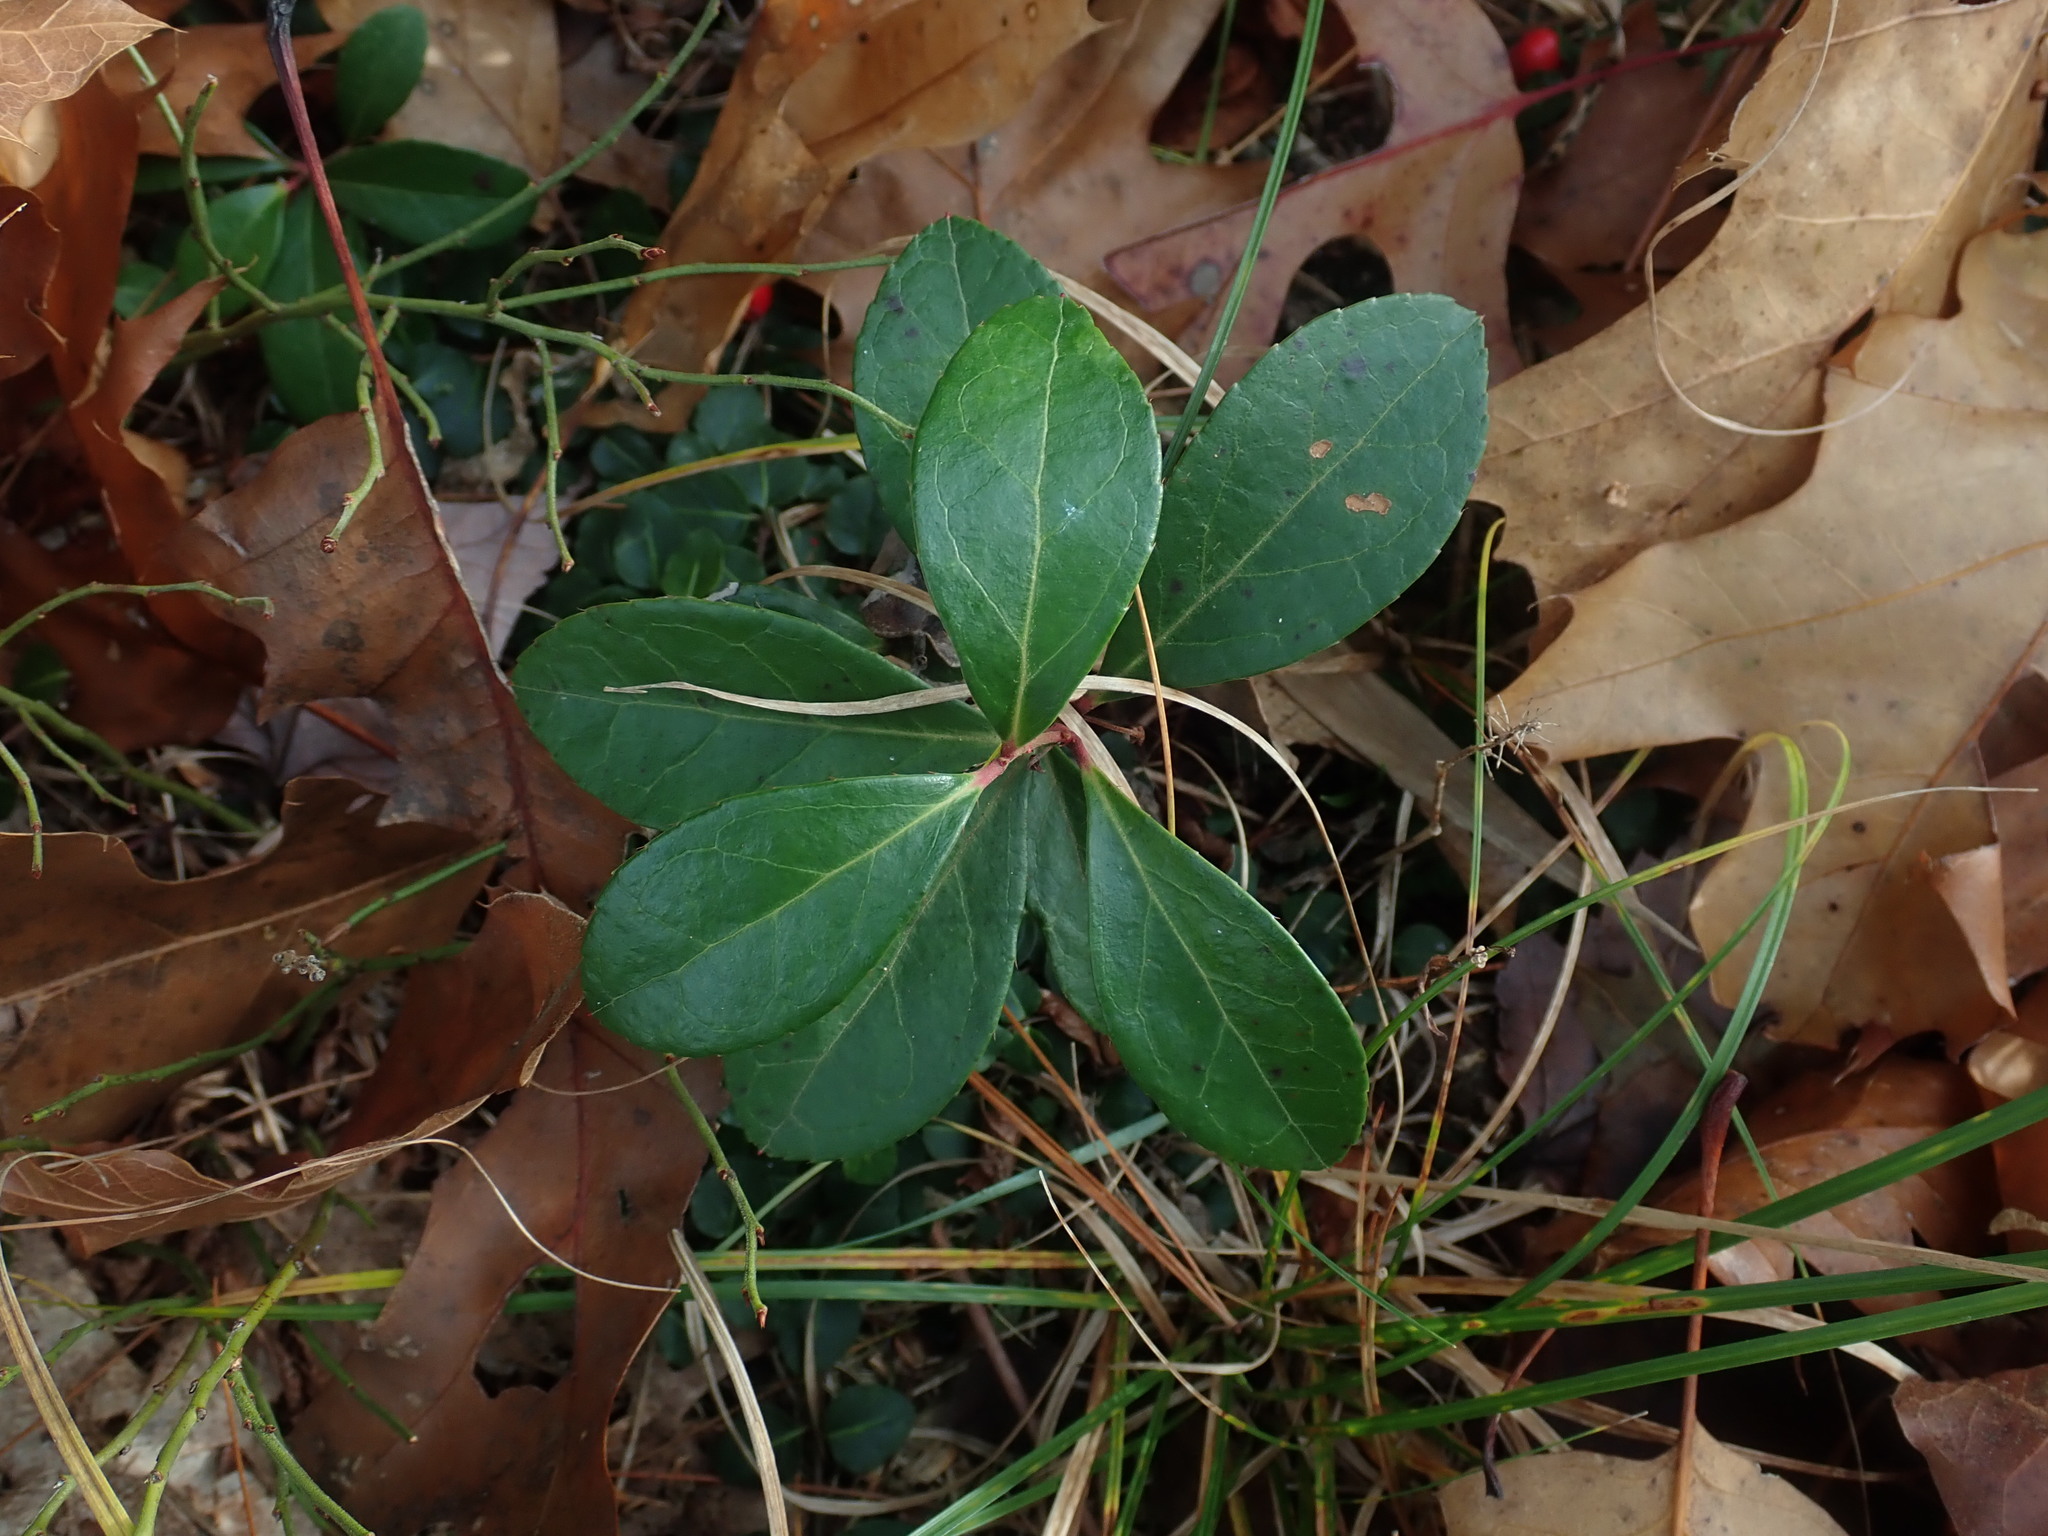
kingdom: Plantae
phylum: Tracheophyta
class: Magnoliopsida
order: Ericales
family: Ericaceae
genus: Gaultheria
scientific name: Gaultheria procumbens
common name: Checkerberry
